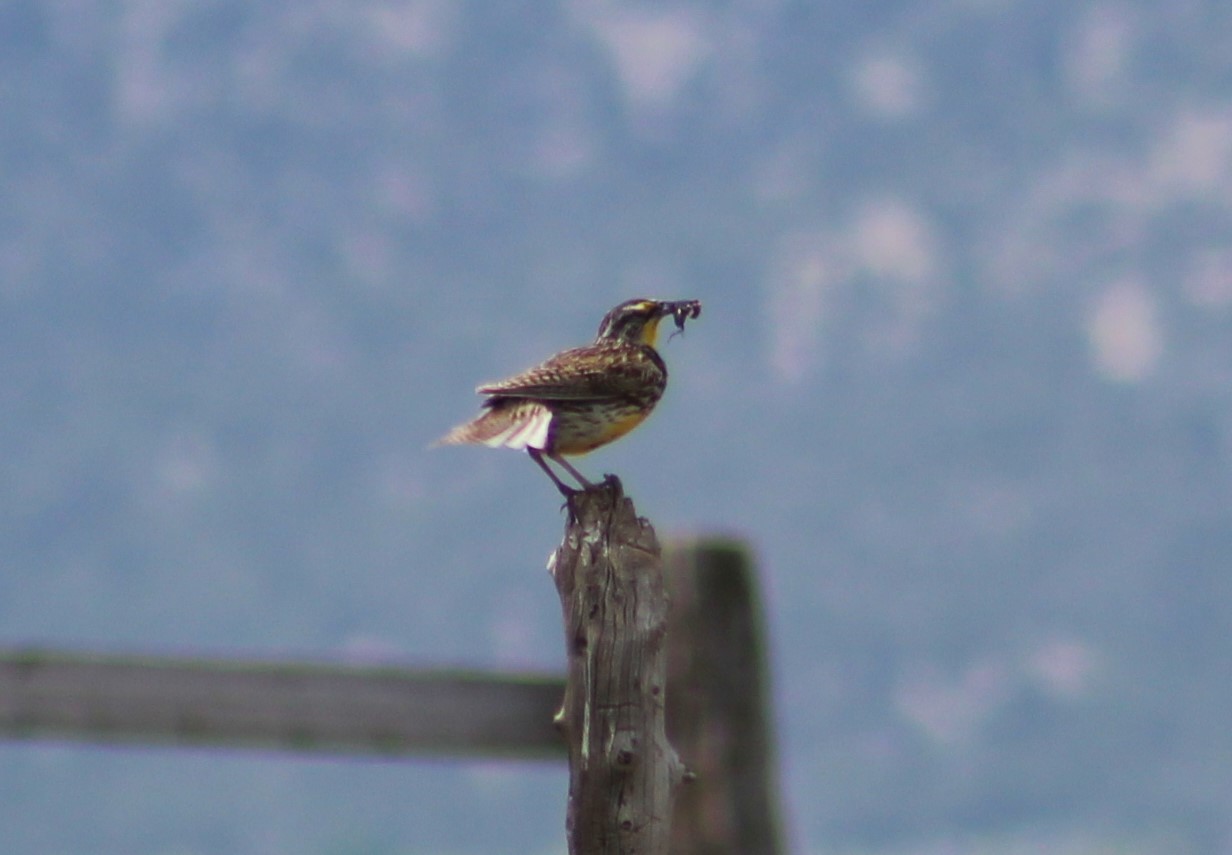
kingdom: Animalia
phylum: Chordata
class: Aves
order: Passeriformes
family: Icteridae
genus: Sturnella
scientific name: Sturnella neglecta
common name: Western meadowlark
